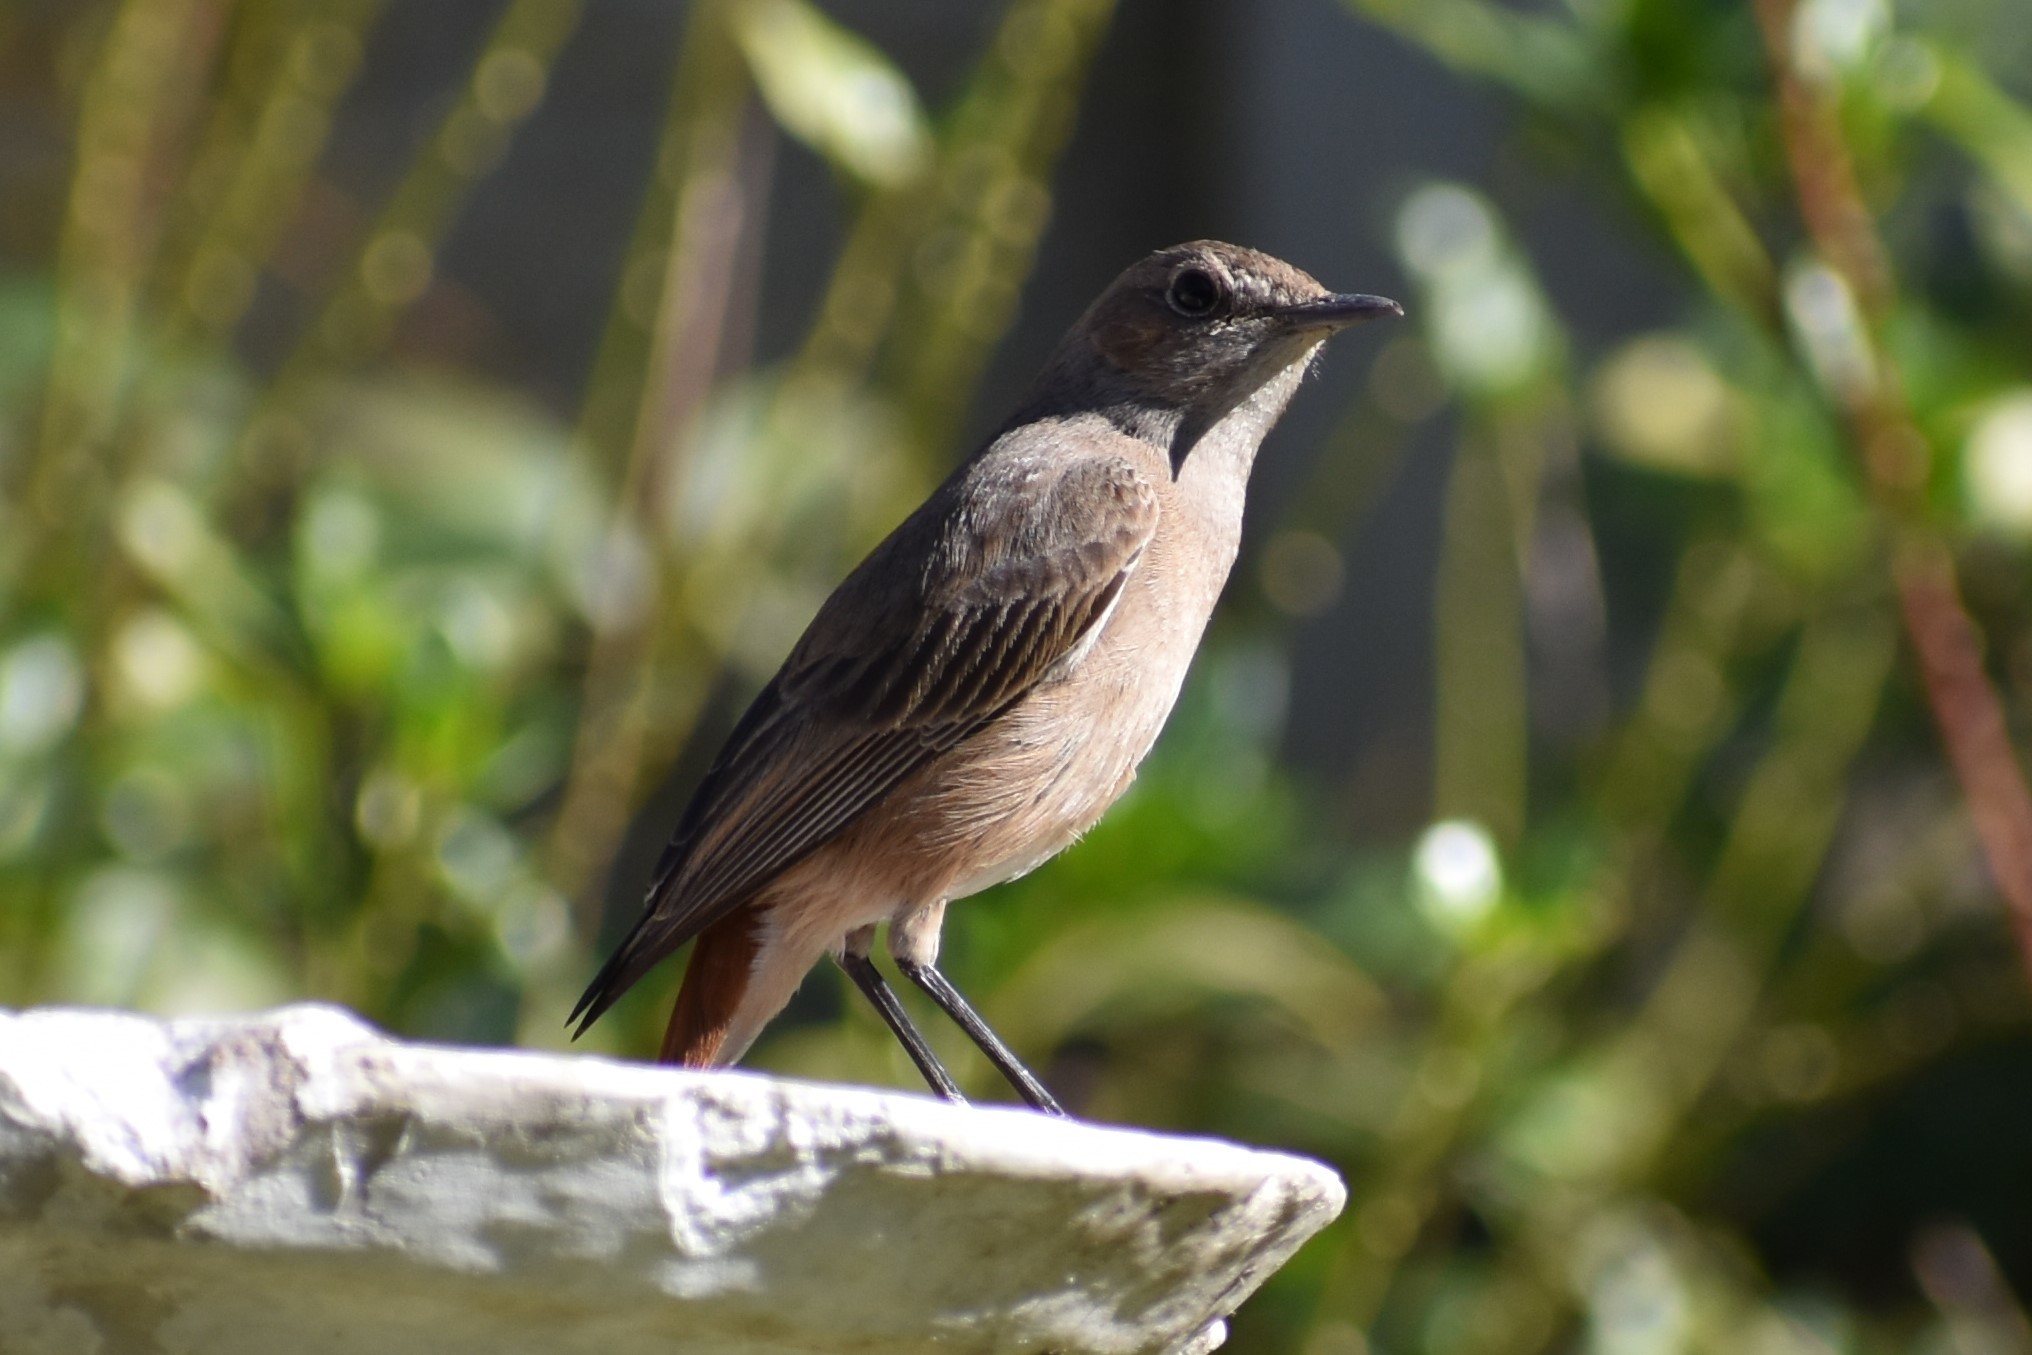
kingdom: Animalia
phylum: Chordata
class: Aves
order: Passeriformes
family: Muscicapidae
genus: Oenanthe
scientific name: Oenanthe familiaris
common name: Familiar chat
